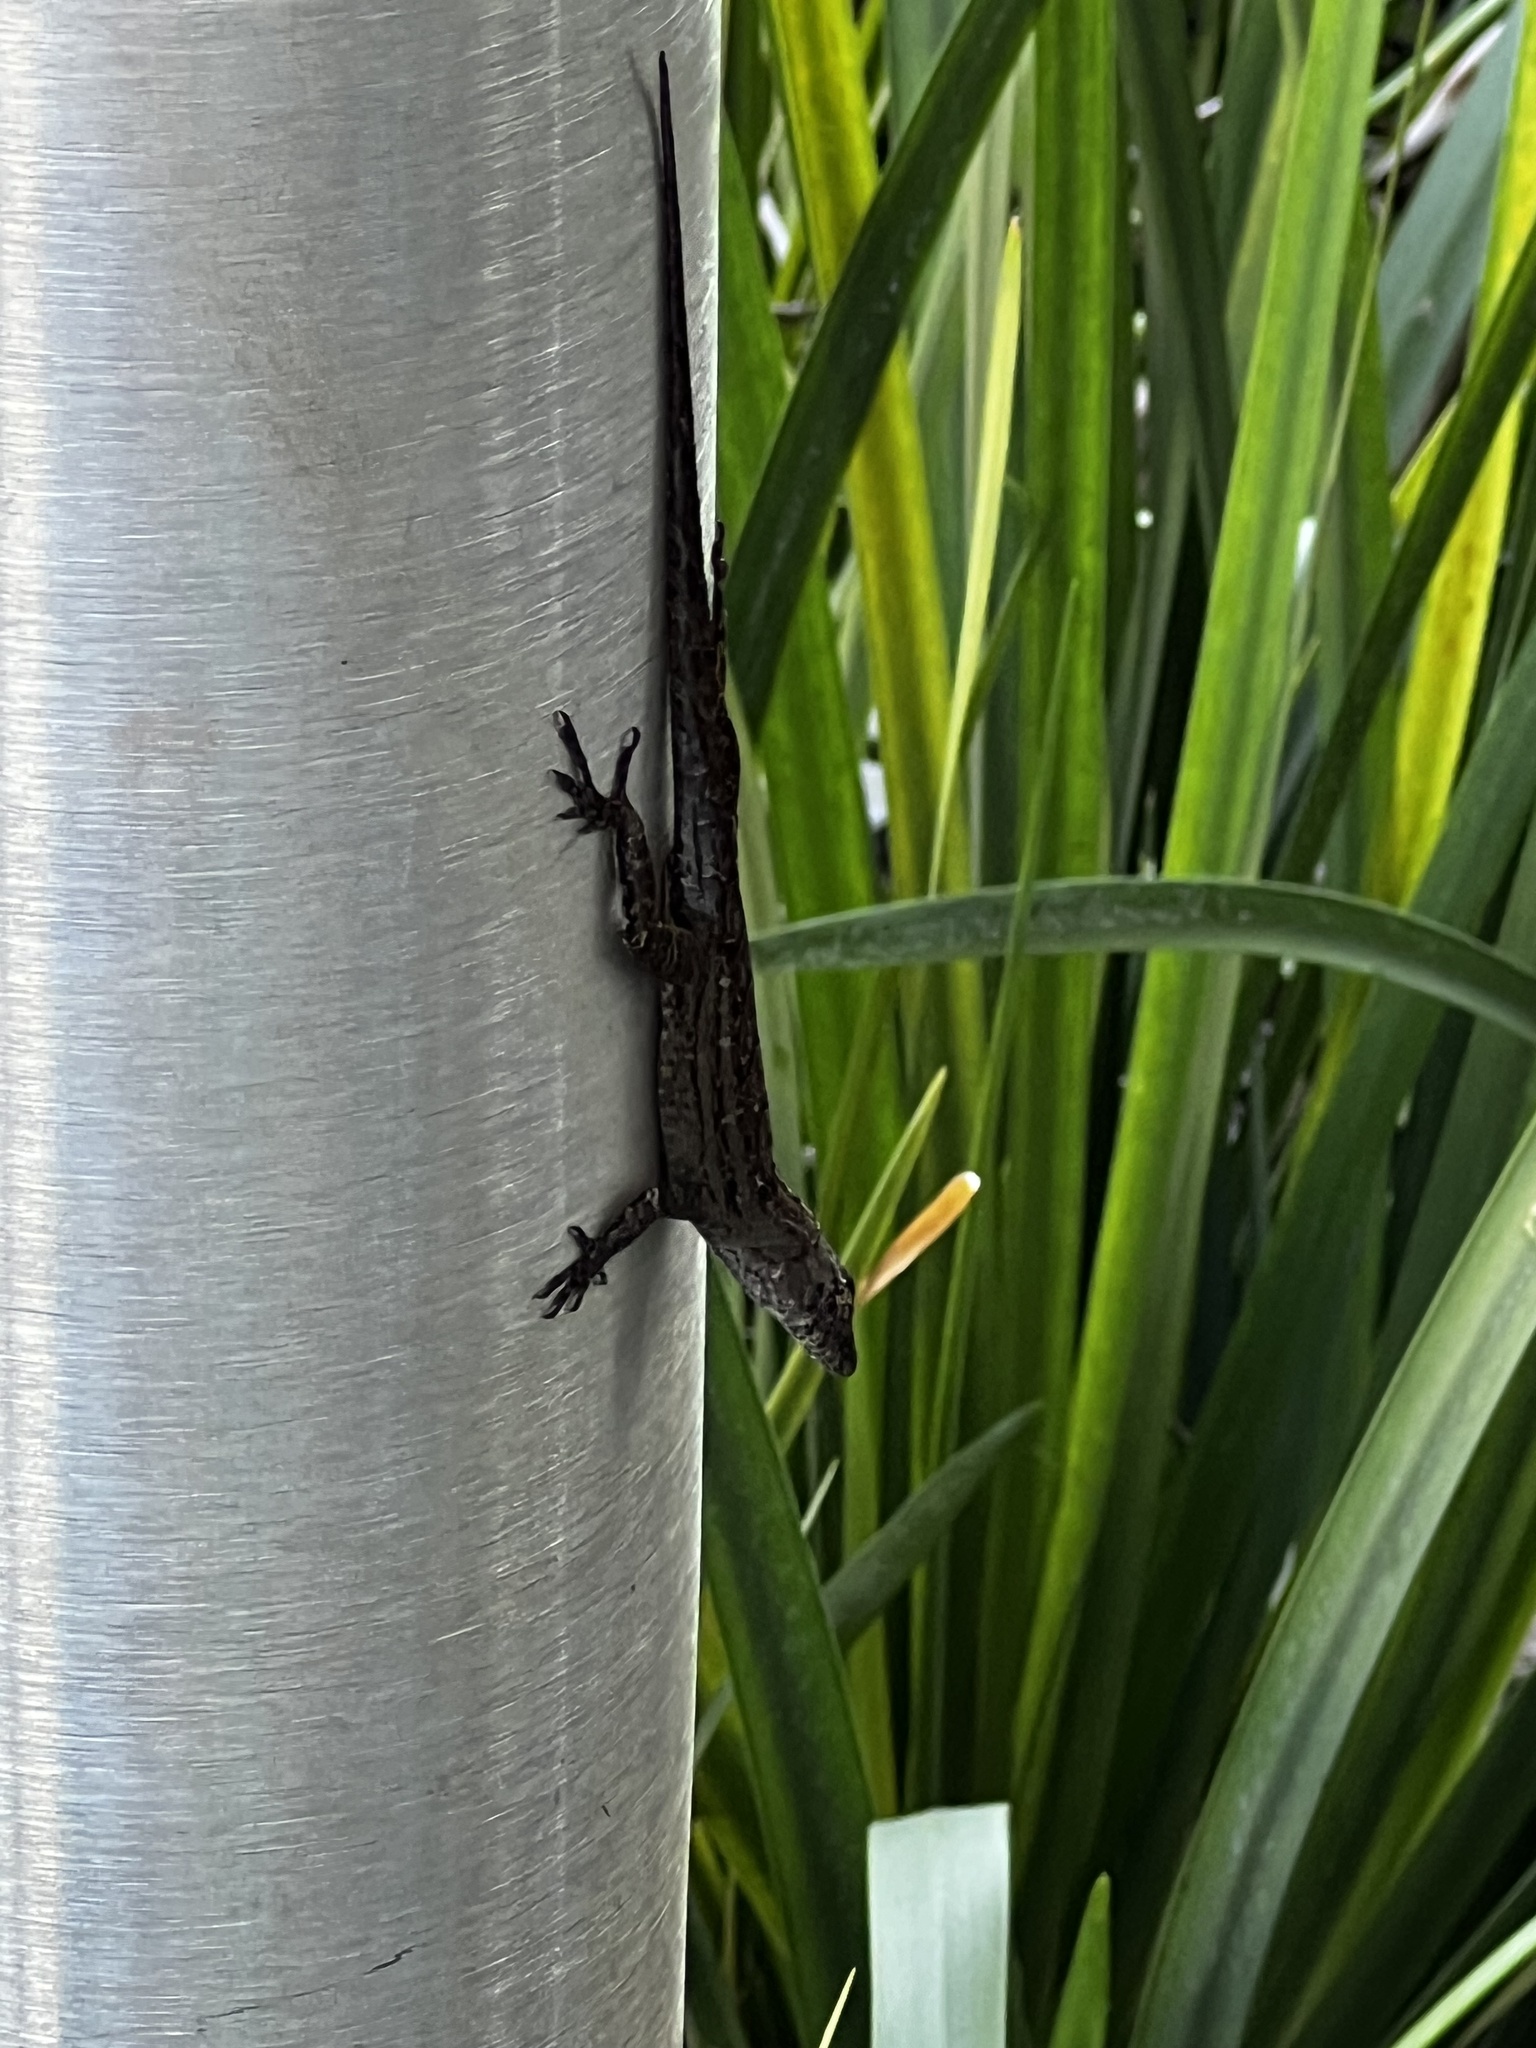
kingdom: Animalia
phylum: Chordata
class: Squamata
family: Dactyloidae
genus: Anolis
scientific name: Anolis sagrei
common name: Brown anole
